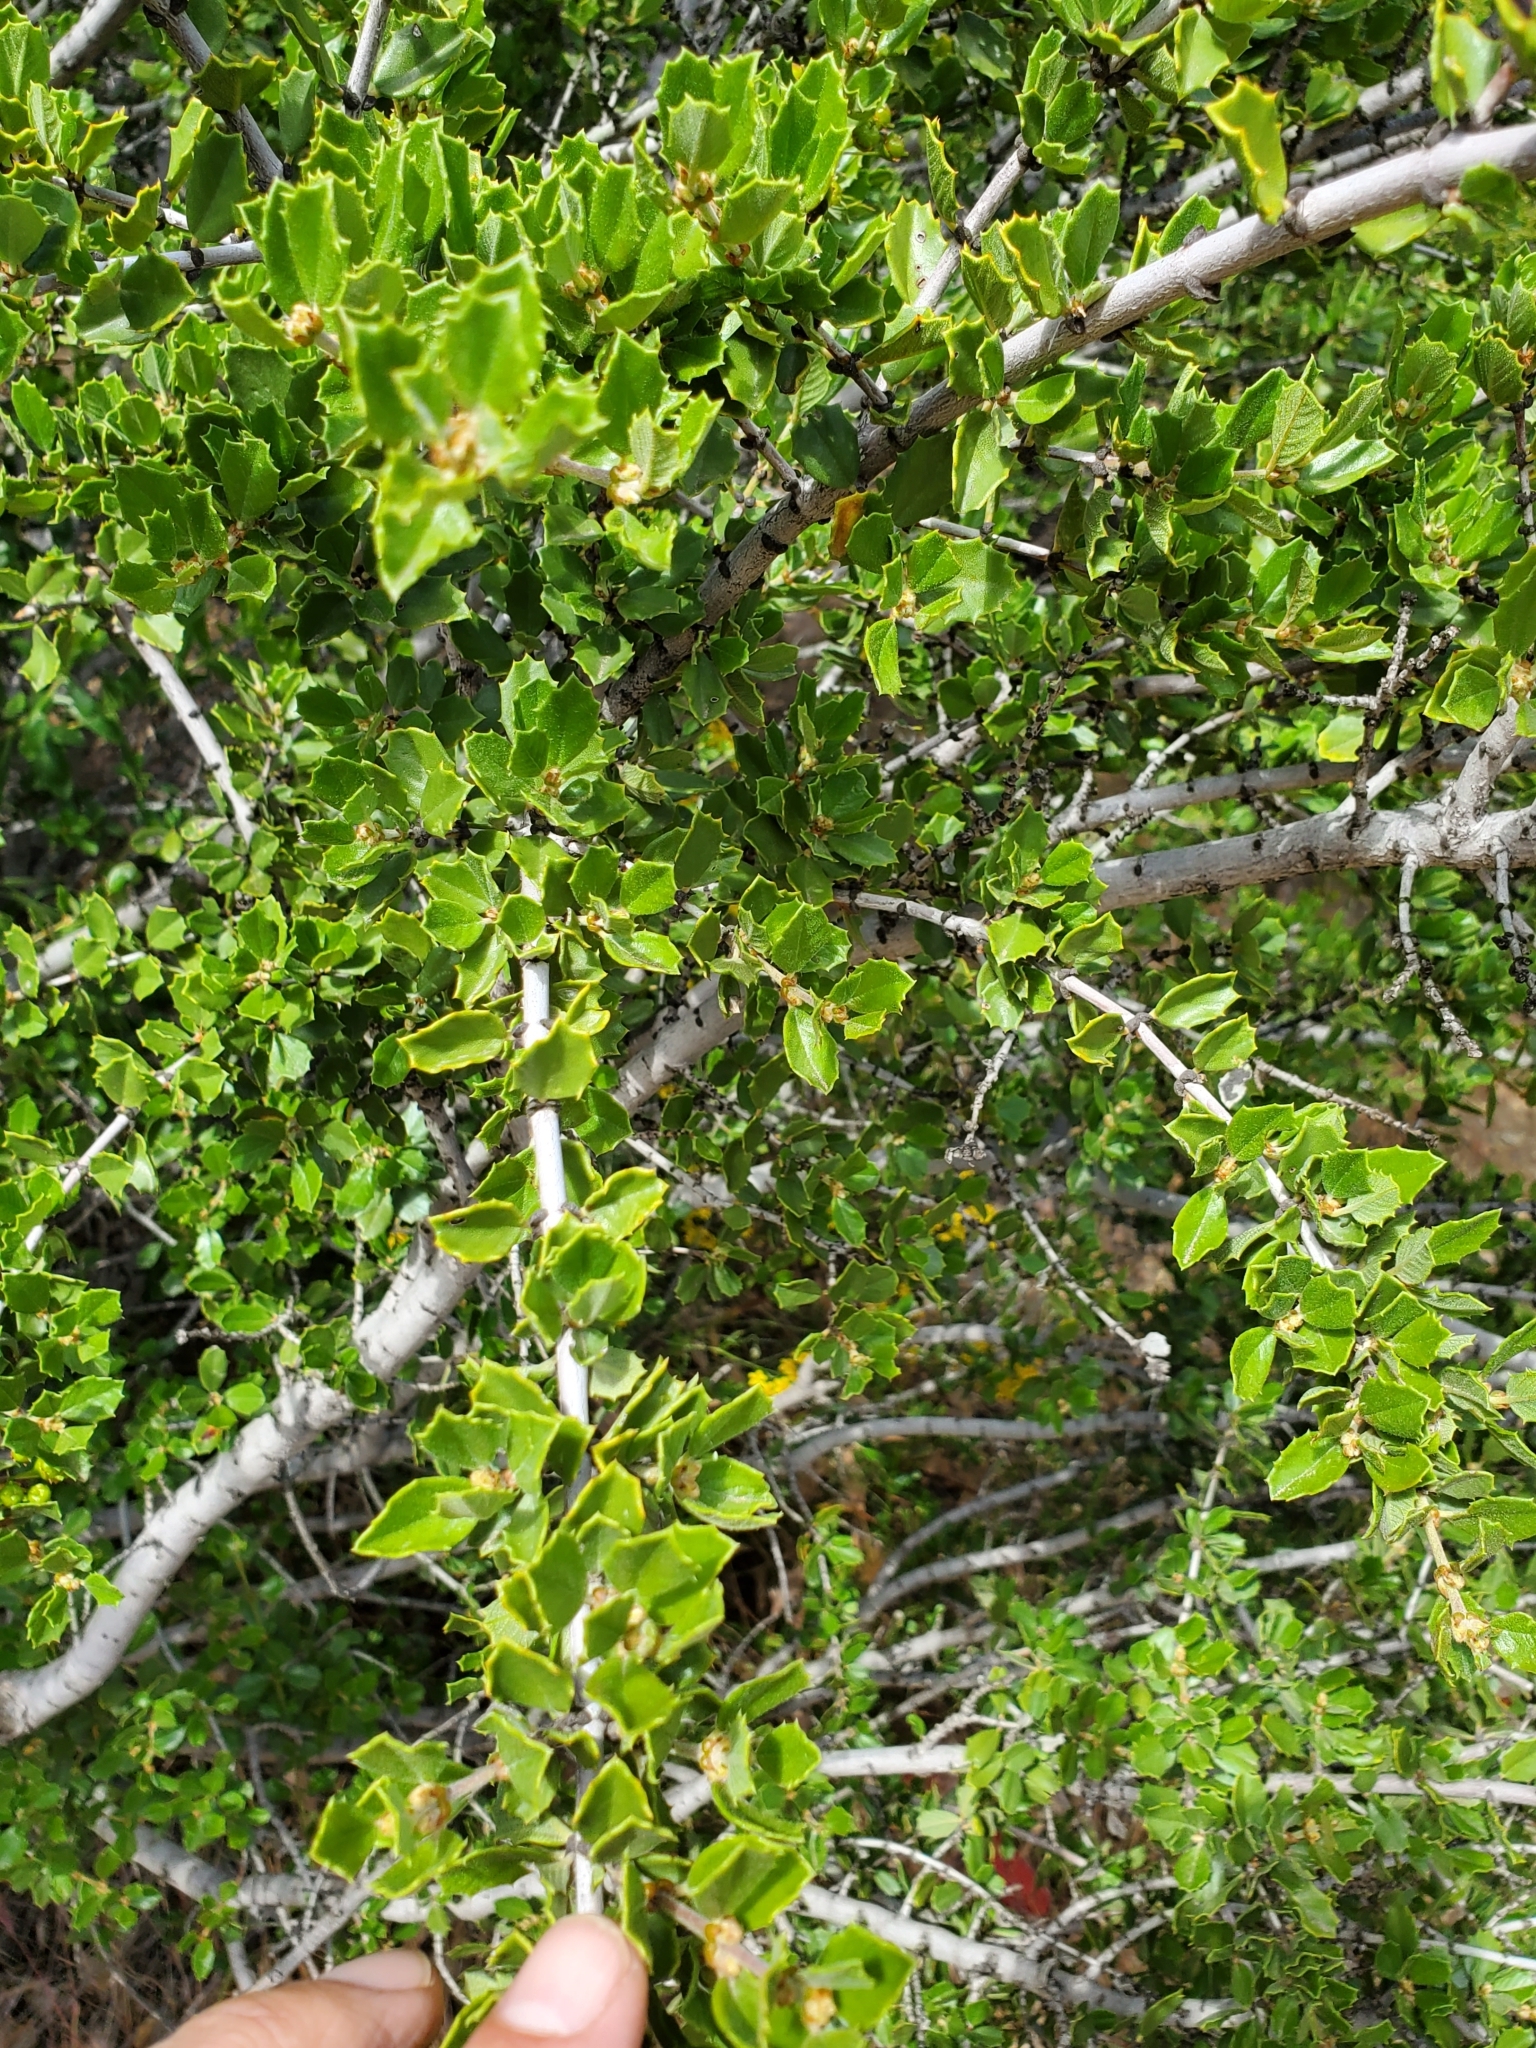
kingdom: Plantae
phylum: Tracheophyta
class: Magnoliopsida
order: Rosales
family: Rhamnaceae
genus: Ceanothus
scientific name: Ceanothus perplexans
